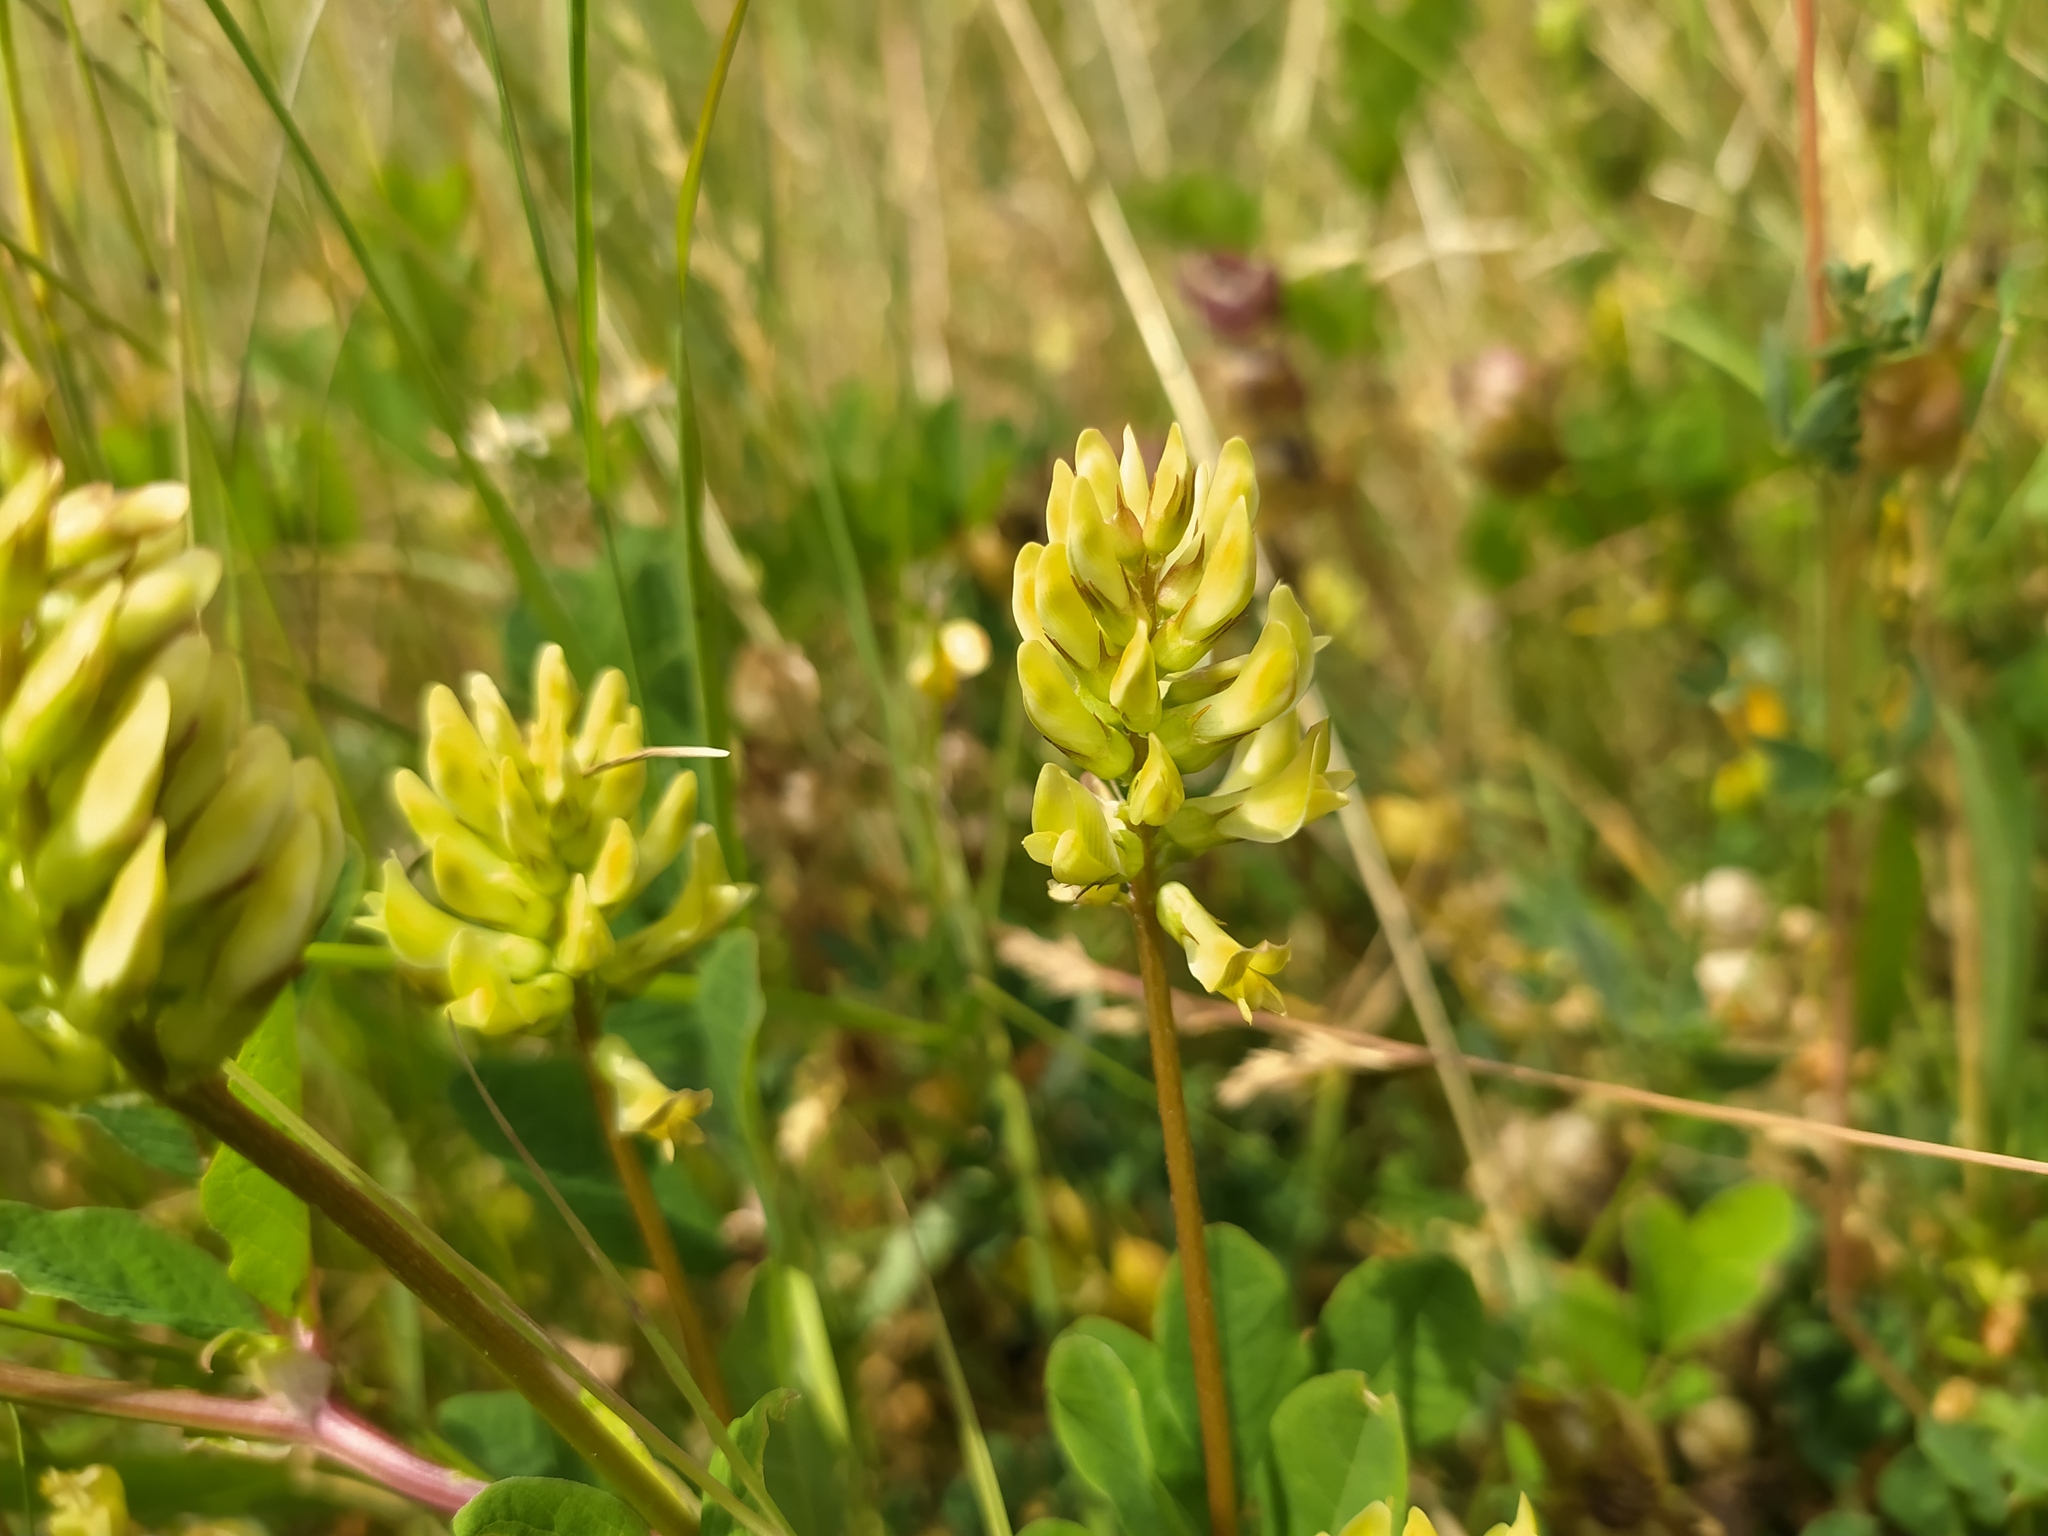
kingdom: Plantae
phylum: Tracheophyta
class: Magnoliopsida
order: Fabales
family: Fabaceae
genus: Astragalus
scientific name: Astragalus glycyphyllos
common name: Wild liquorice
